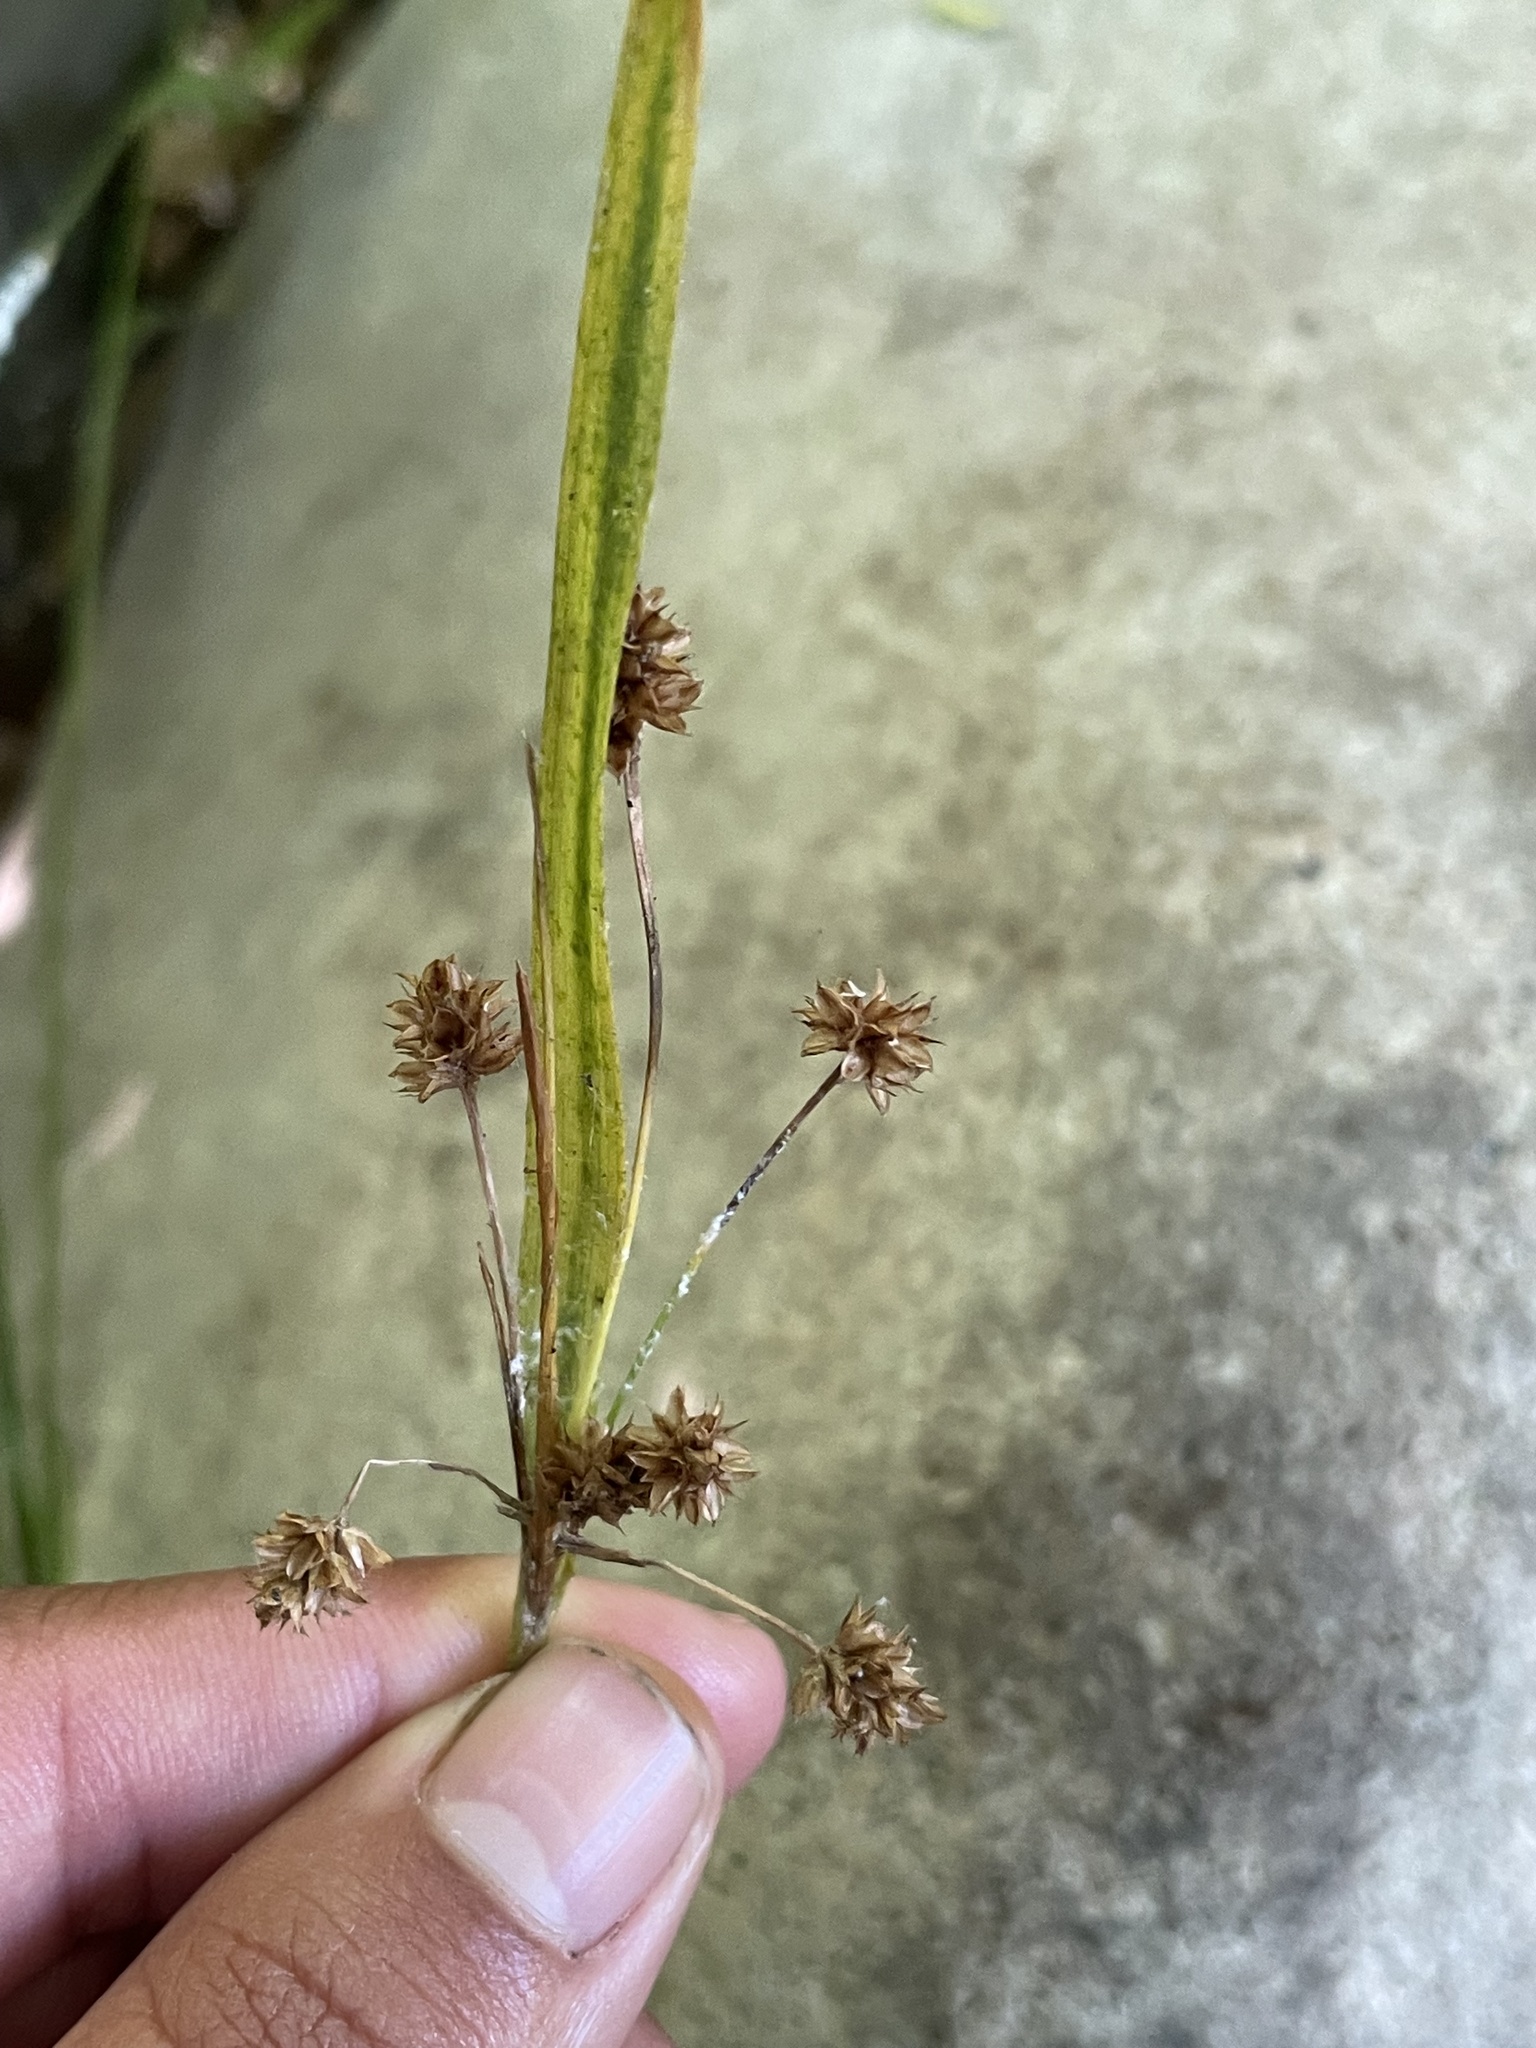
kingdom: Plantae
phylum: Tracheophyta
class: Liliopsida
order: Poales
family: Juncaceae
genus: Luzula
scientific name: Luzula multiflora
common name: Heath wood-rush
